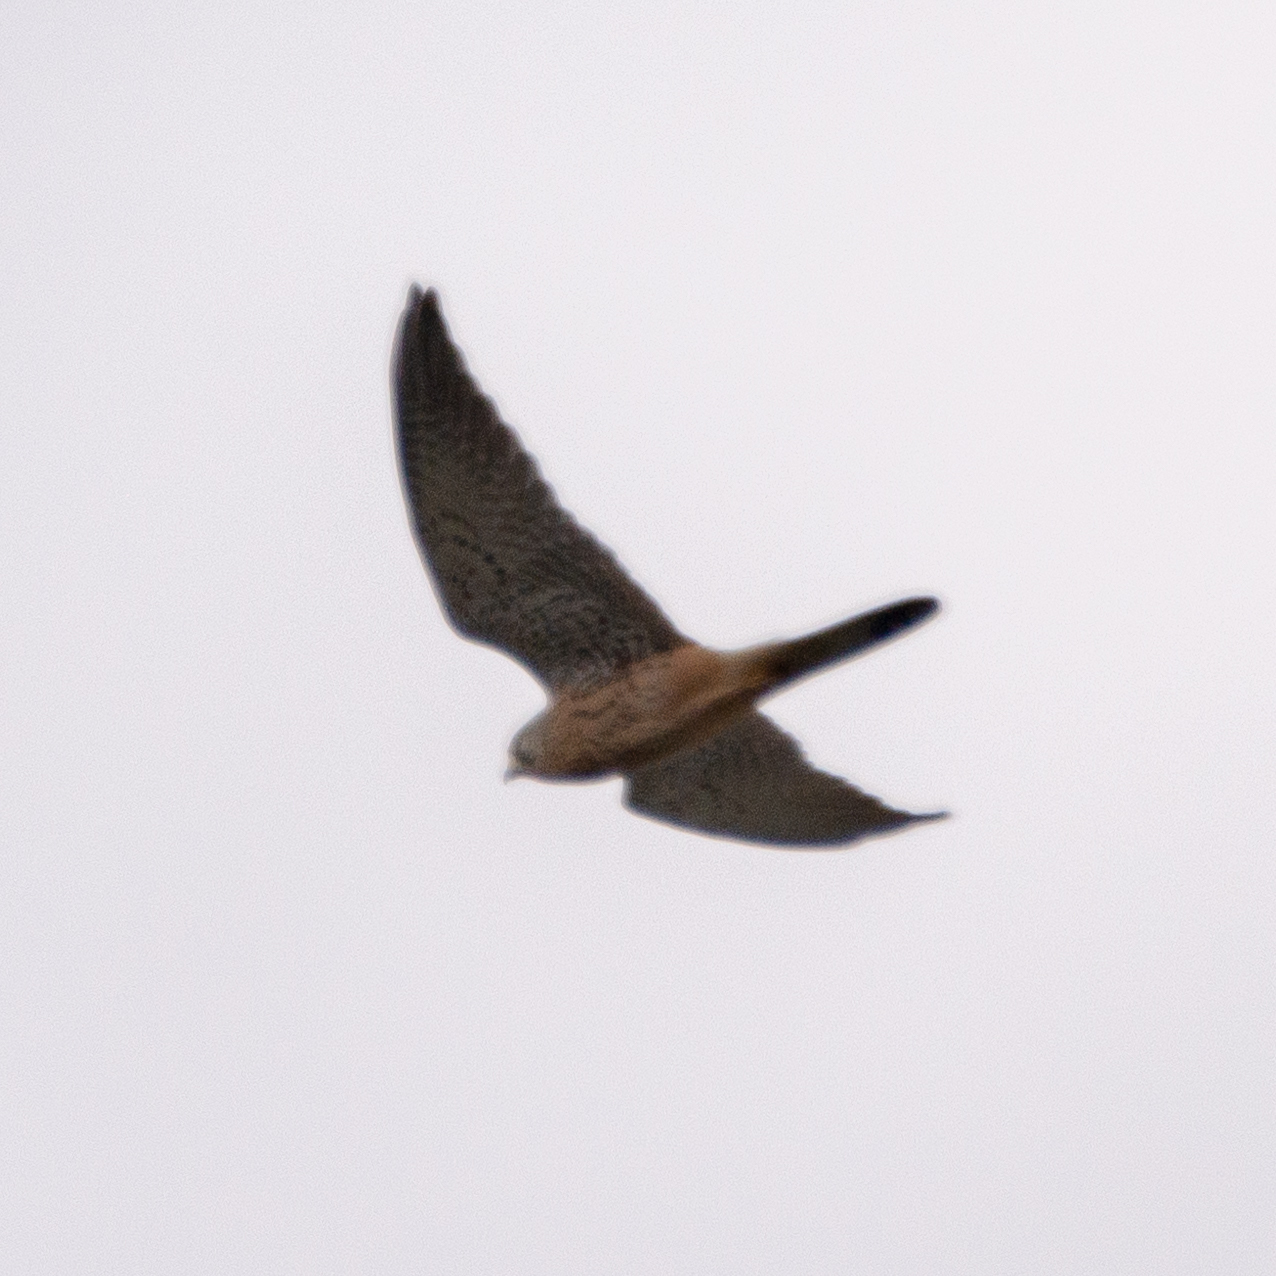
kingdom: Animalia
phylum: Chordata
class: Aves
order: Falconiformes
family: Falconidae
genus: Falco
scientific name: Falco tinnunculus
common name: Common kestrel
